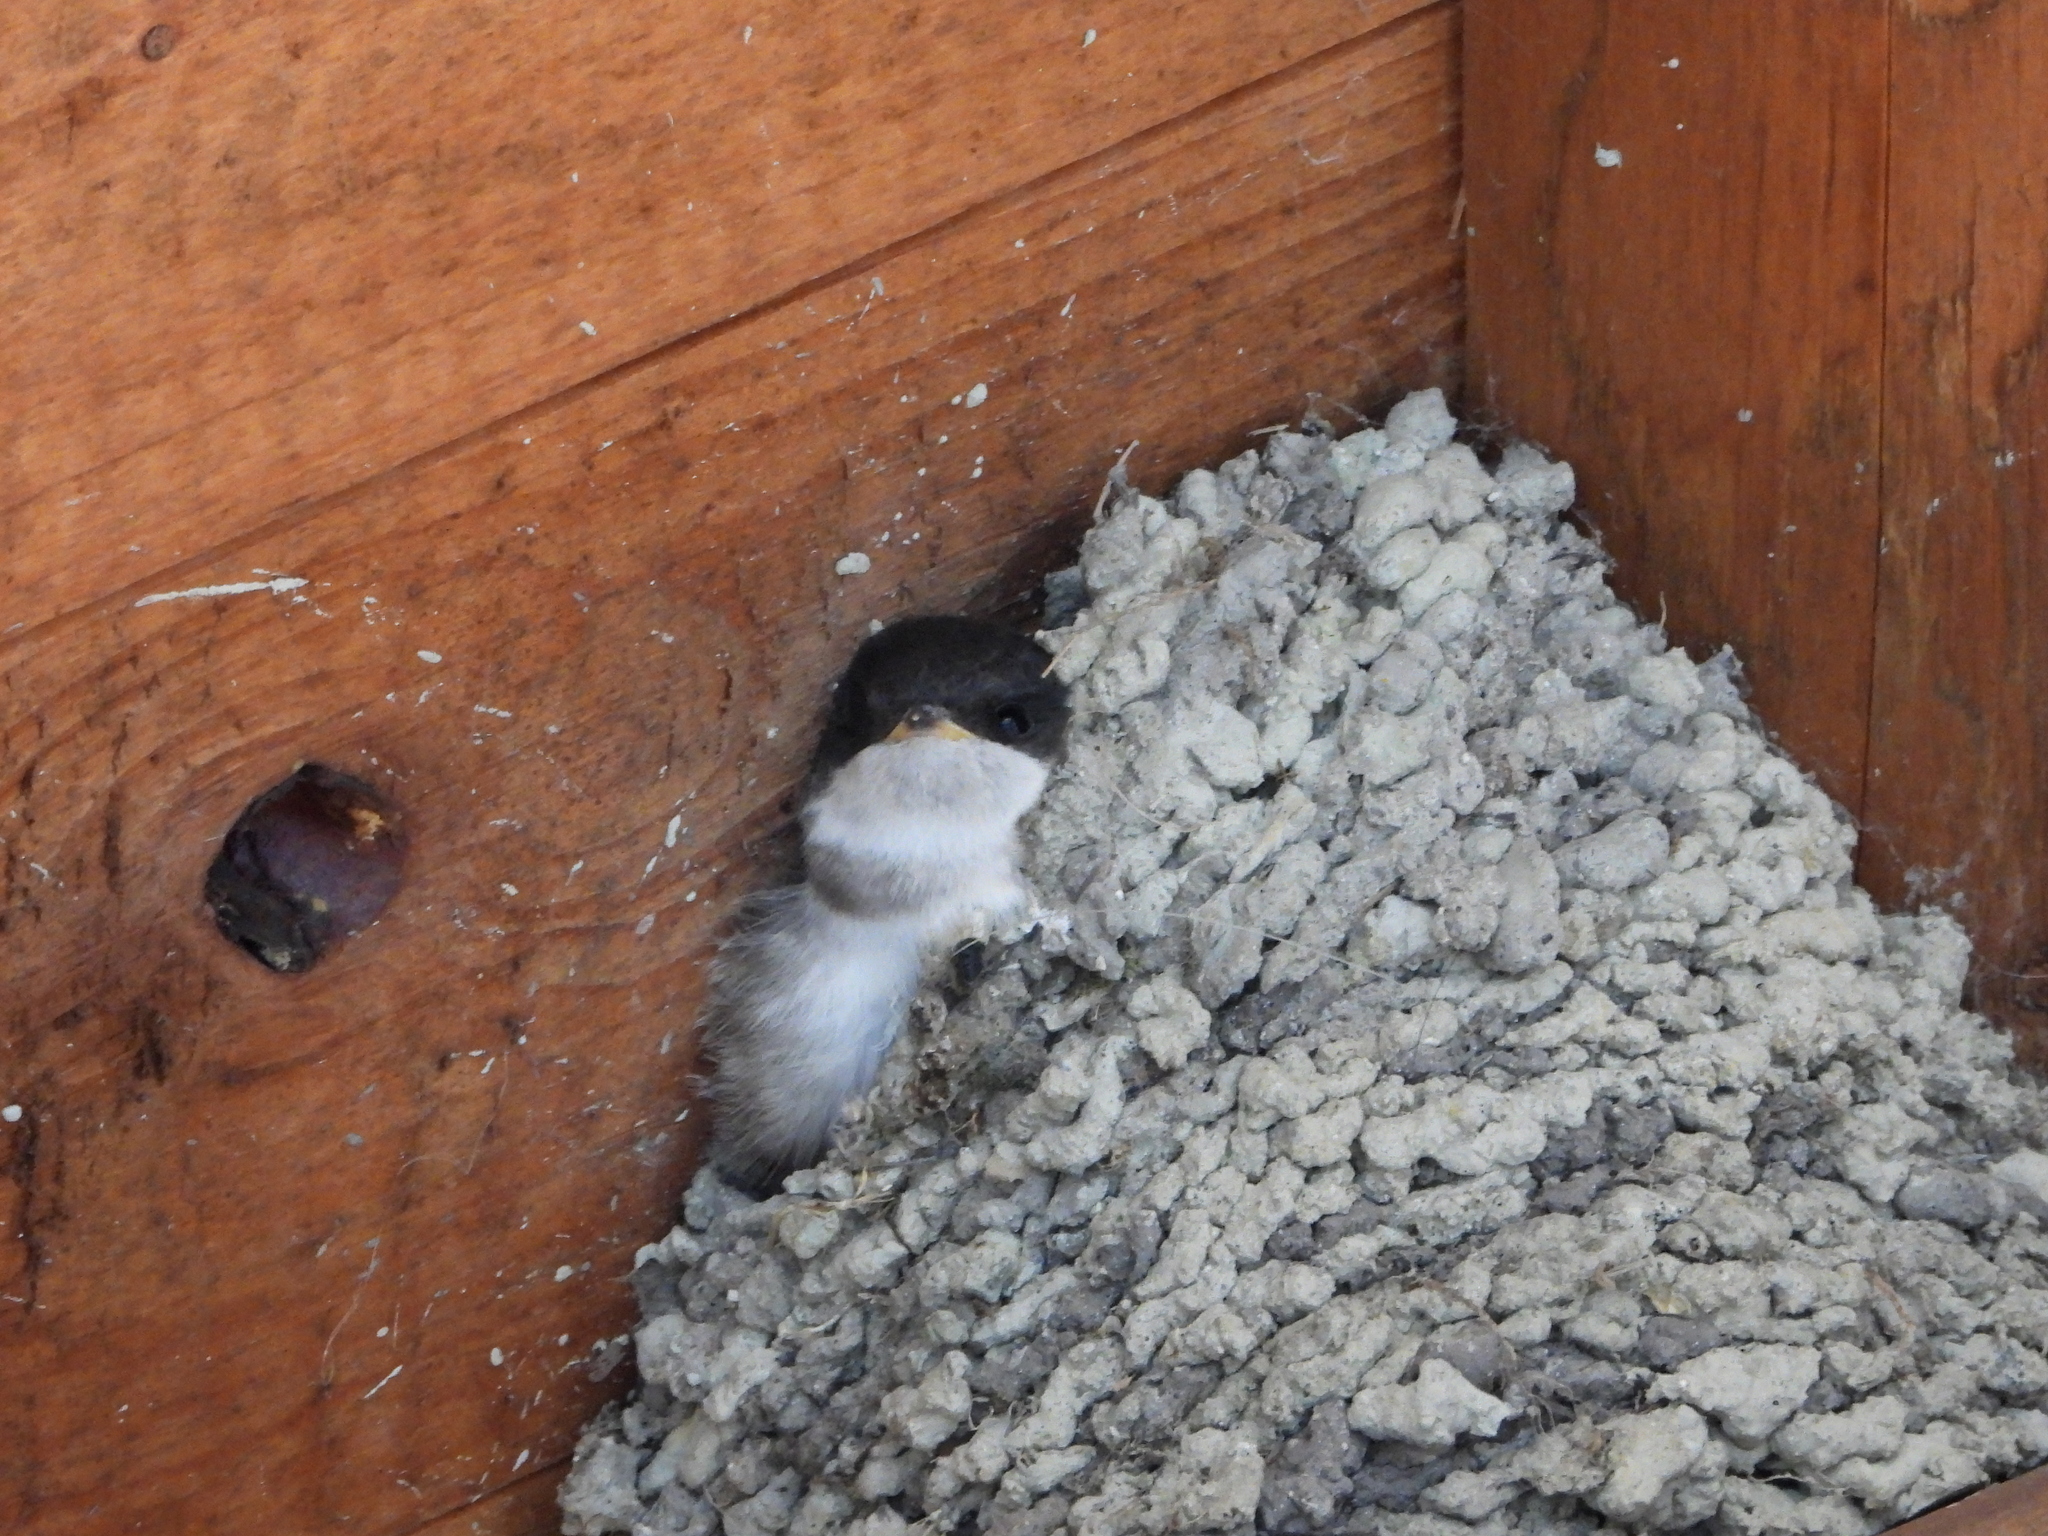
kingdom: Animalia
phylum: Chordata
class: Aves
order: Passeriformes
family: Hirundinidae
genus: Delichon
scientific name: Delichon urbicum
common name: Common house martin
